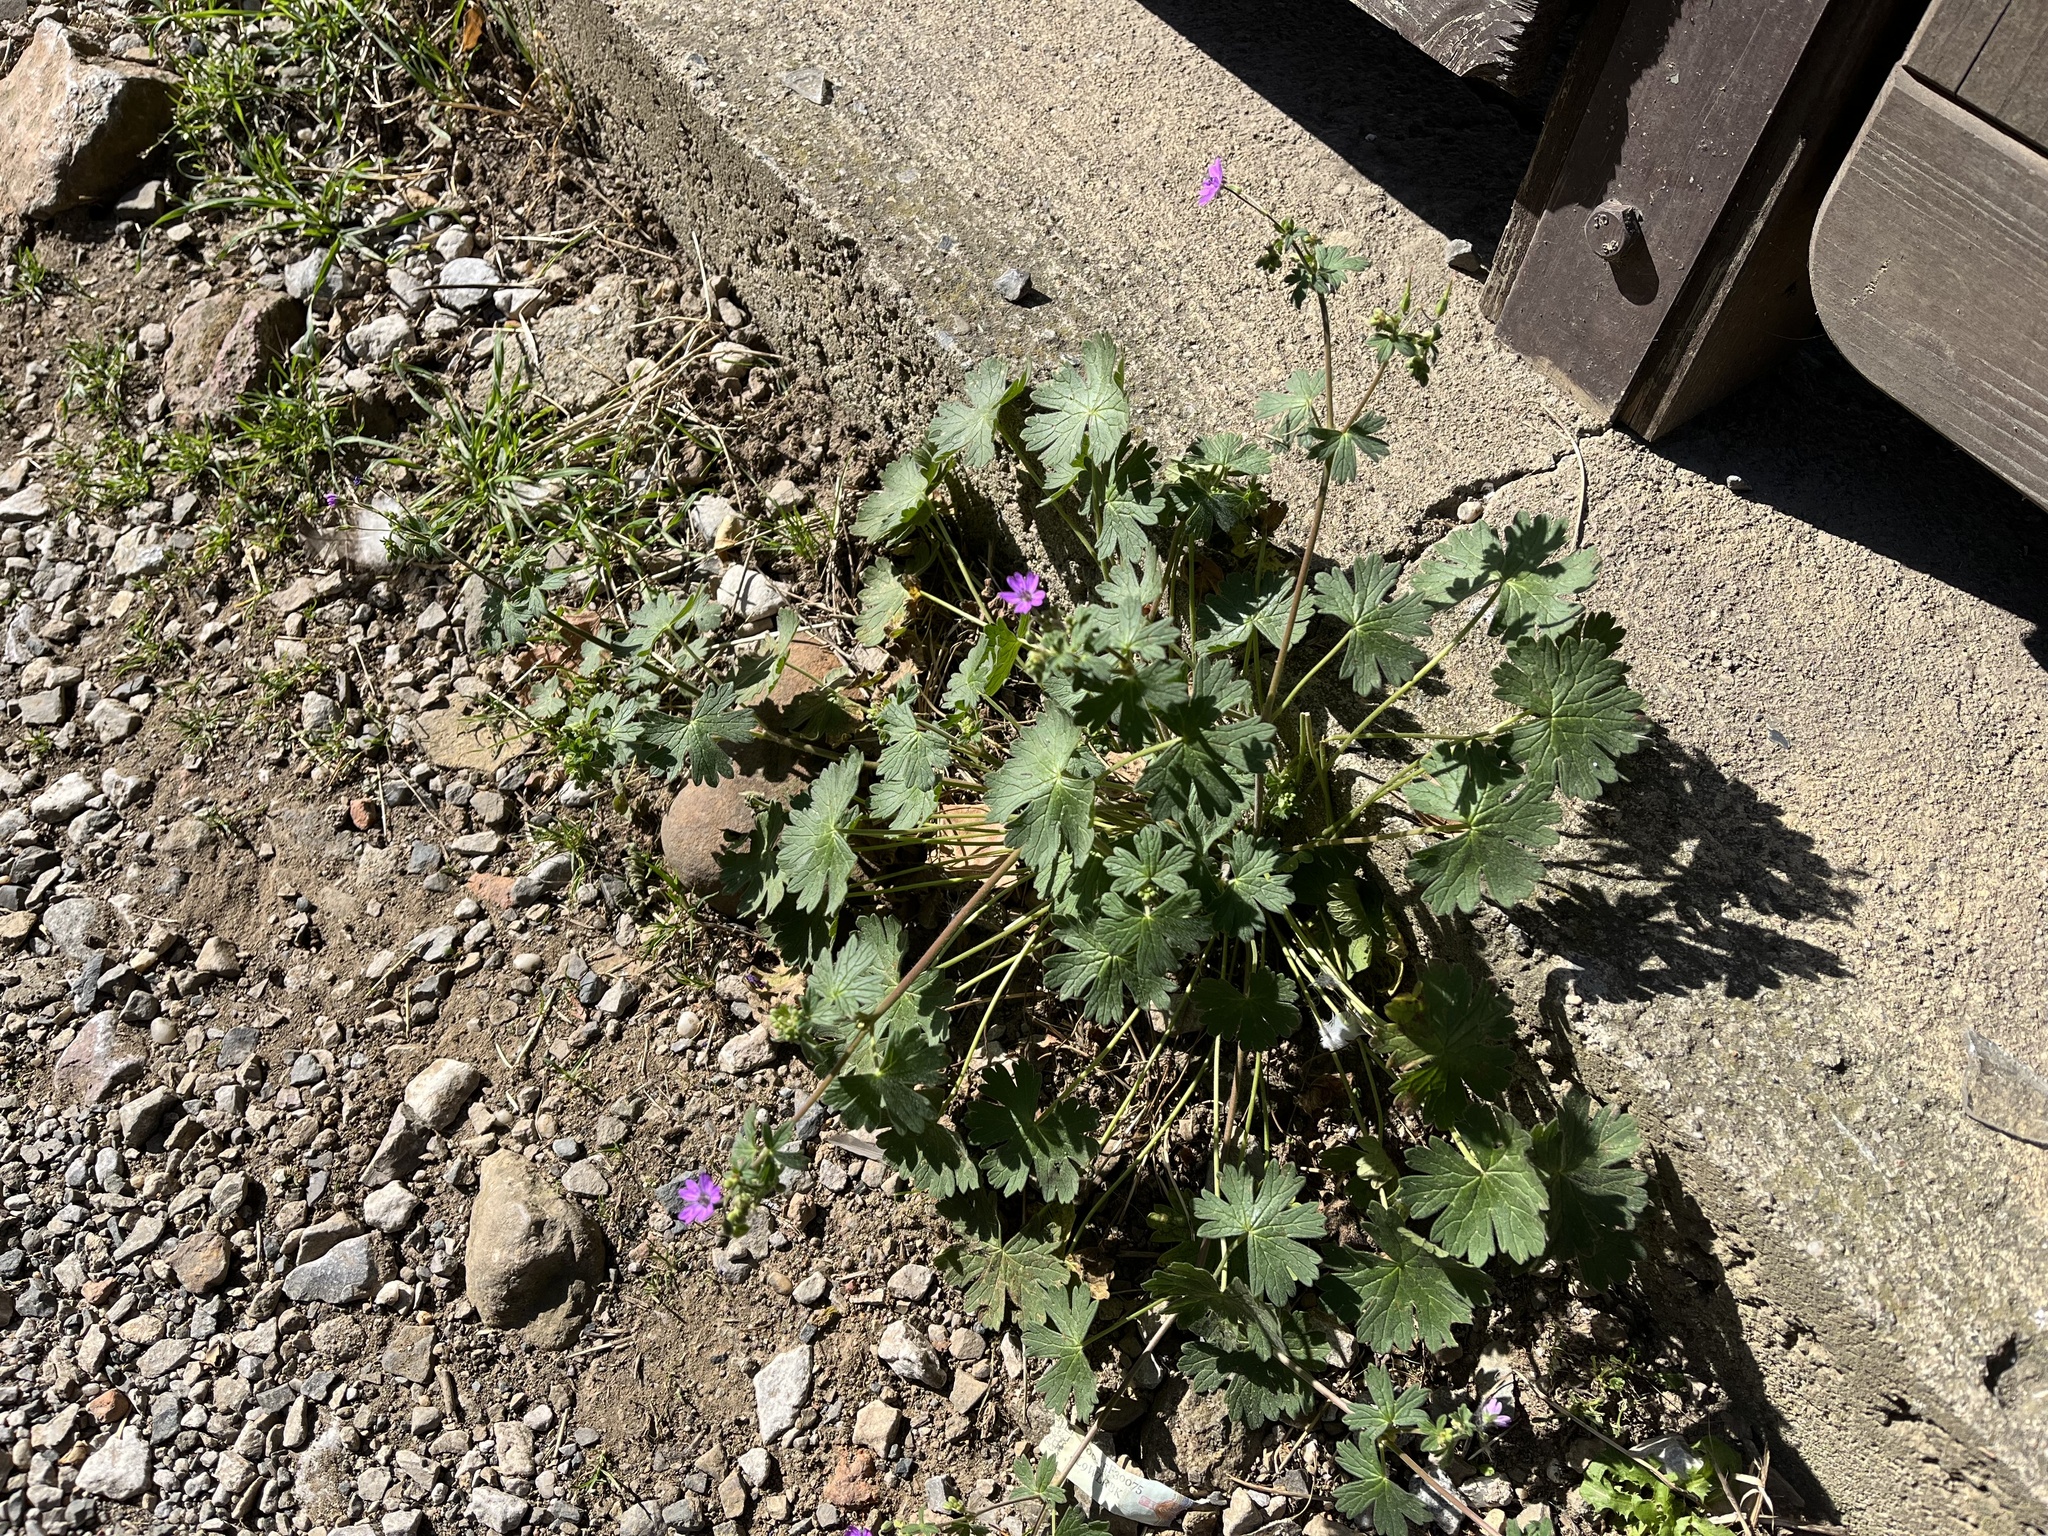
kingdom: Plantae
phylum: Tracheophyta
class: Magnoliopsida
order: Geraniales
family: Geraniaceae
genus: Geranium
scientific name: Geranium pyrenaicum
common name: Hedgerow crane's-bill
